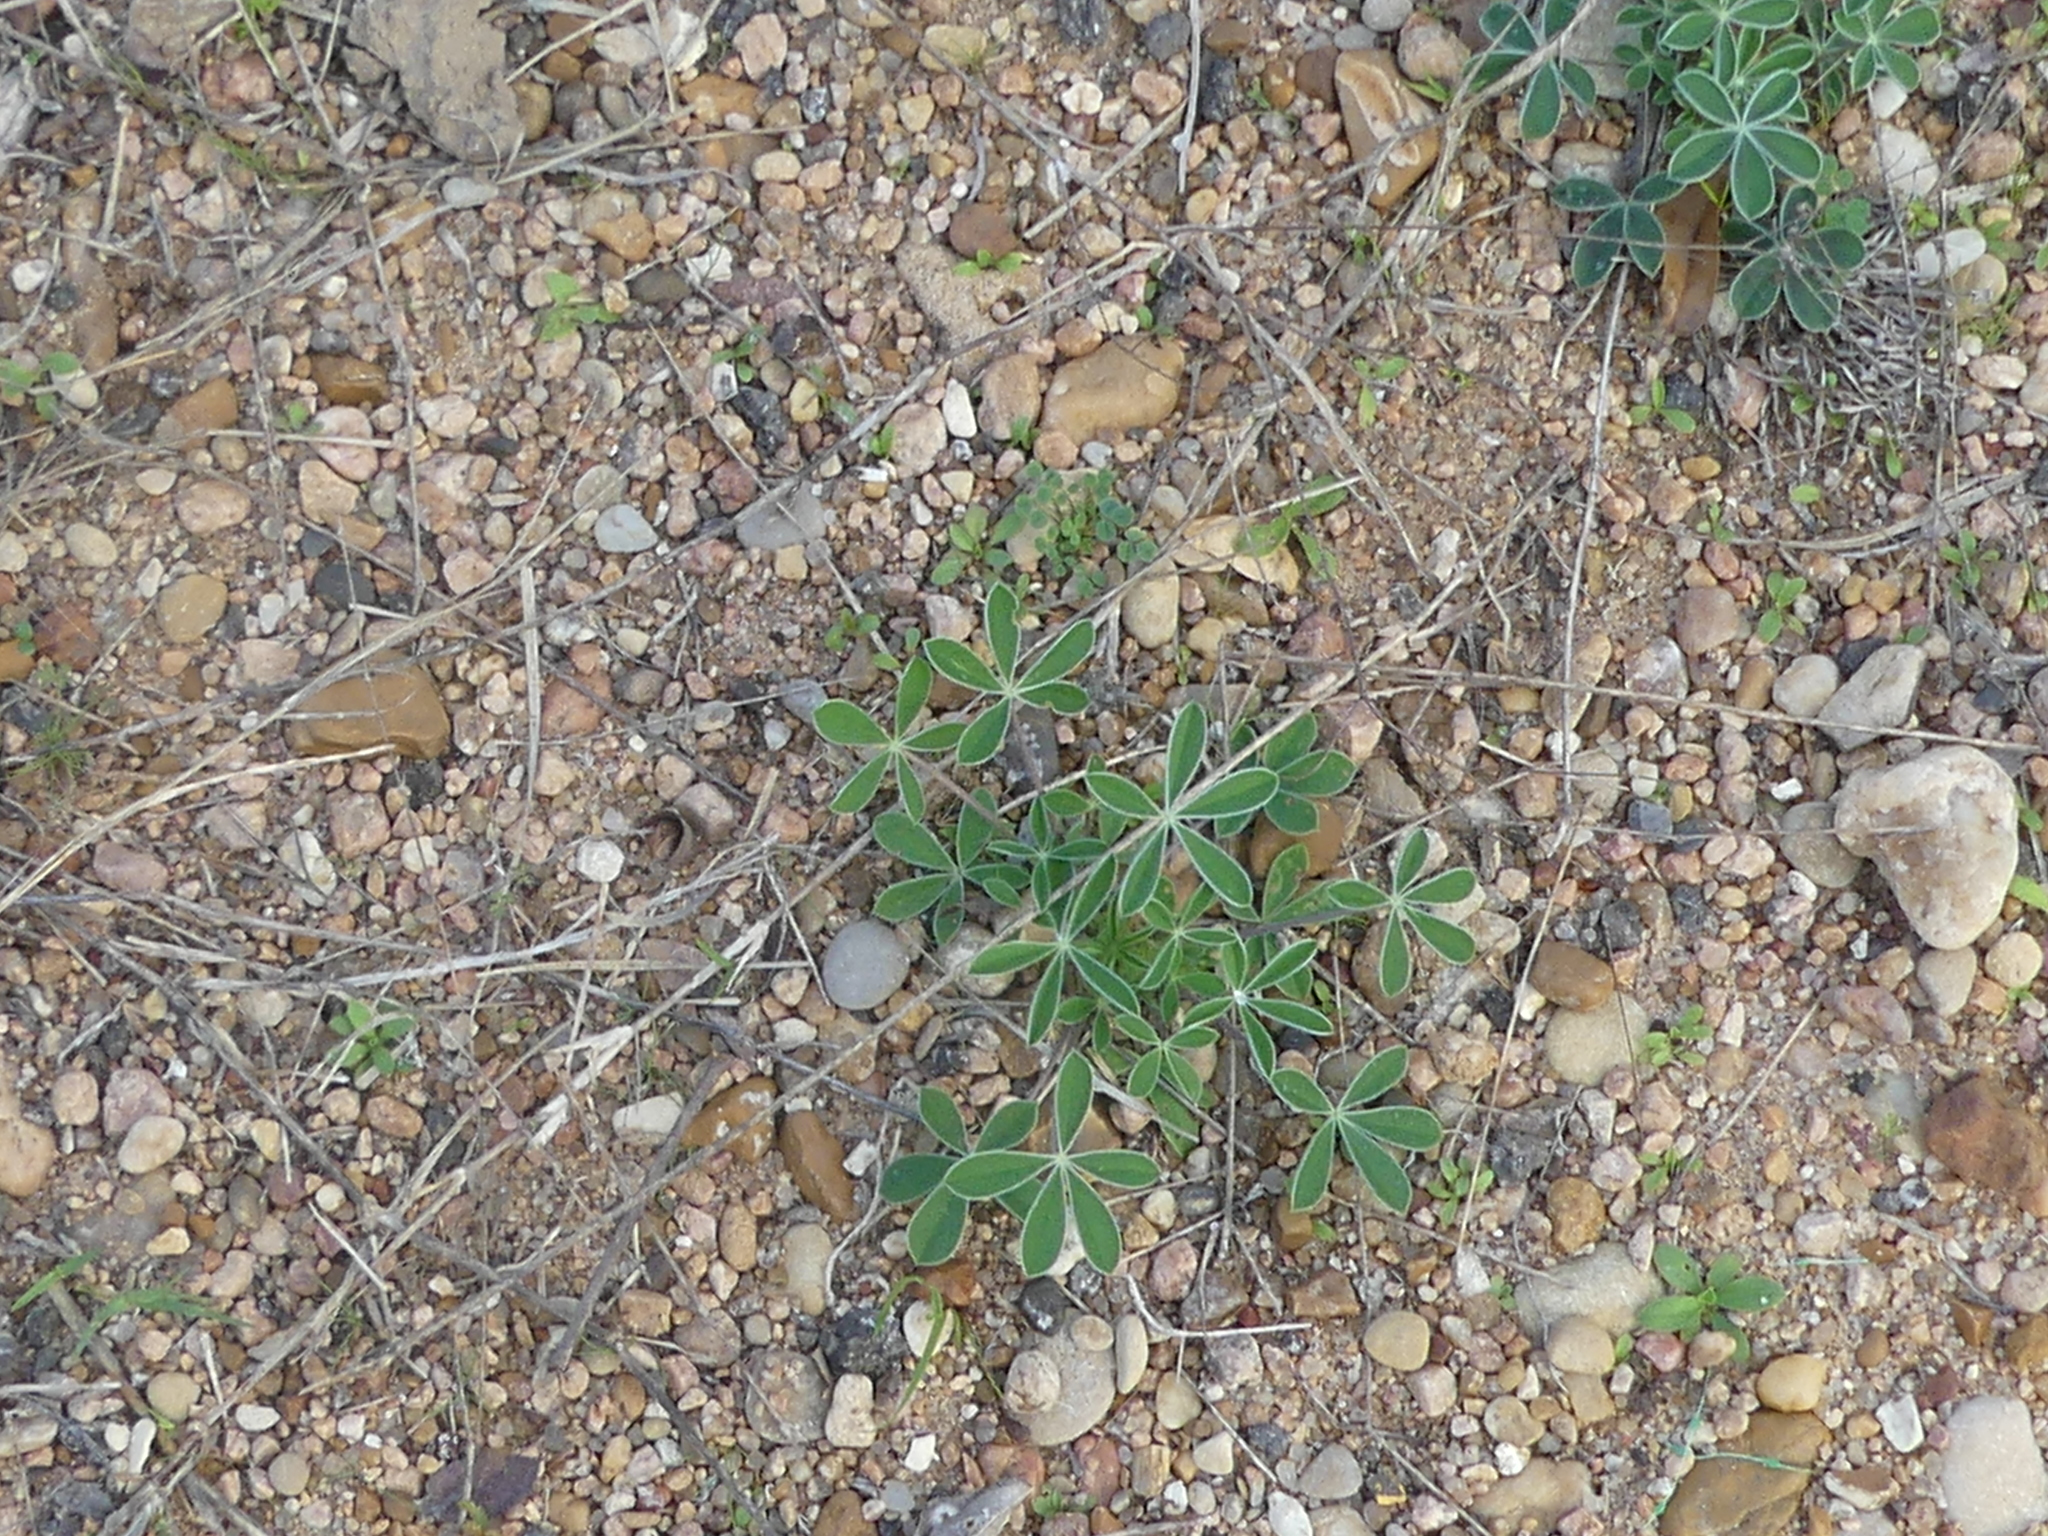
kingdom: Plantae
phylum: Tracheophyta
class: Magnoliopsida
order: Fabales
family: Fabaceae
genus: Lupinus
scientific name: Lupinus texensis
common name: Texas bluebonnet
